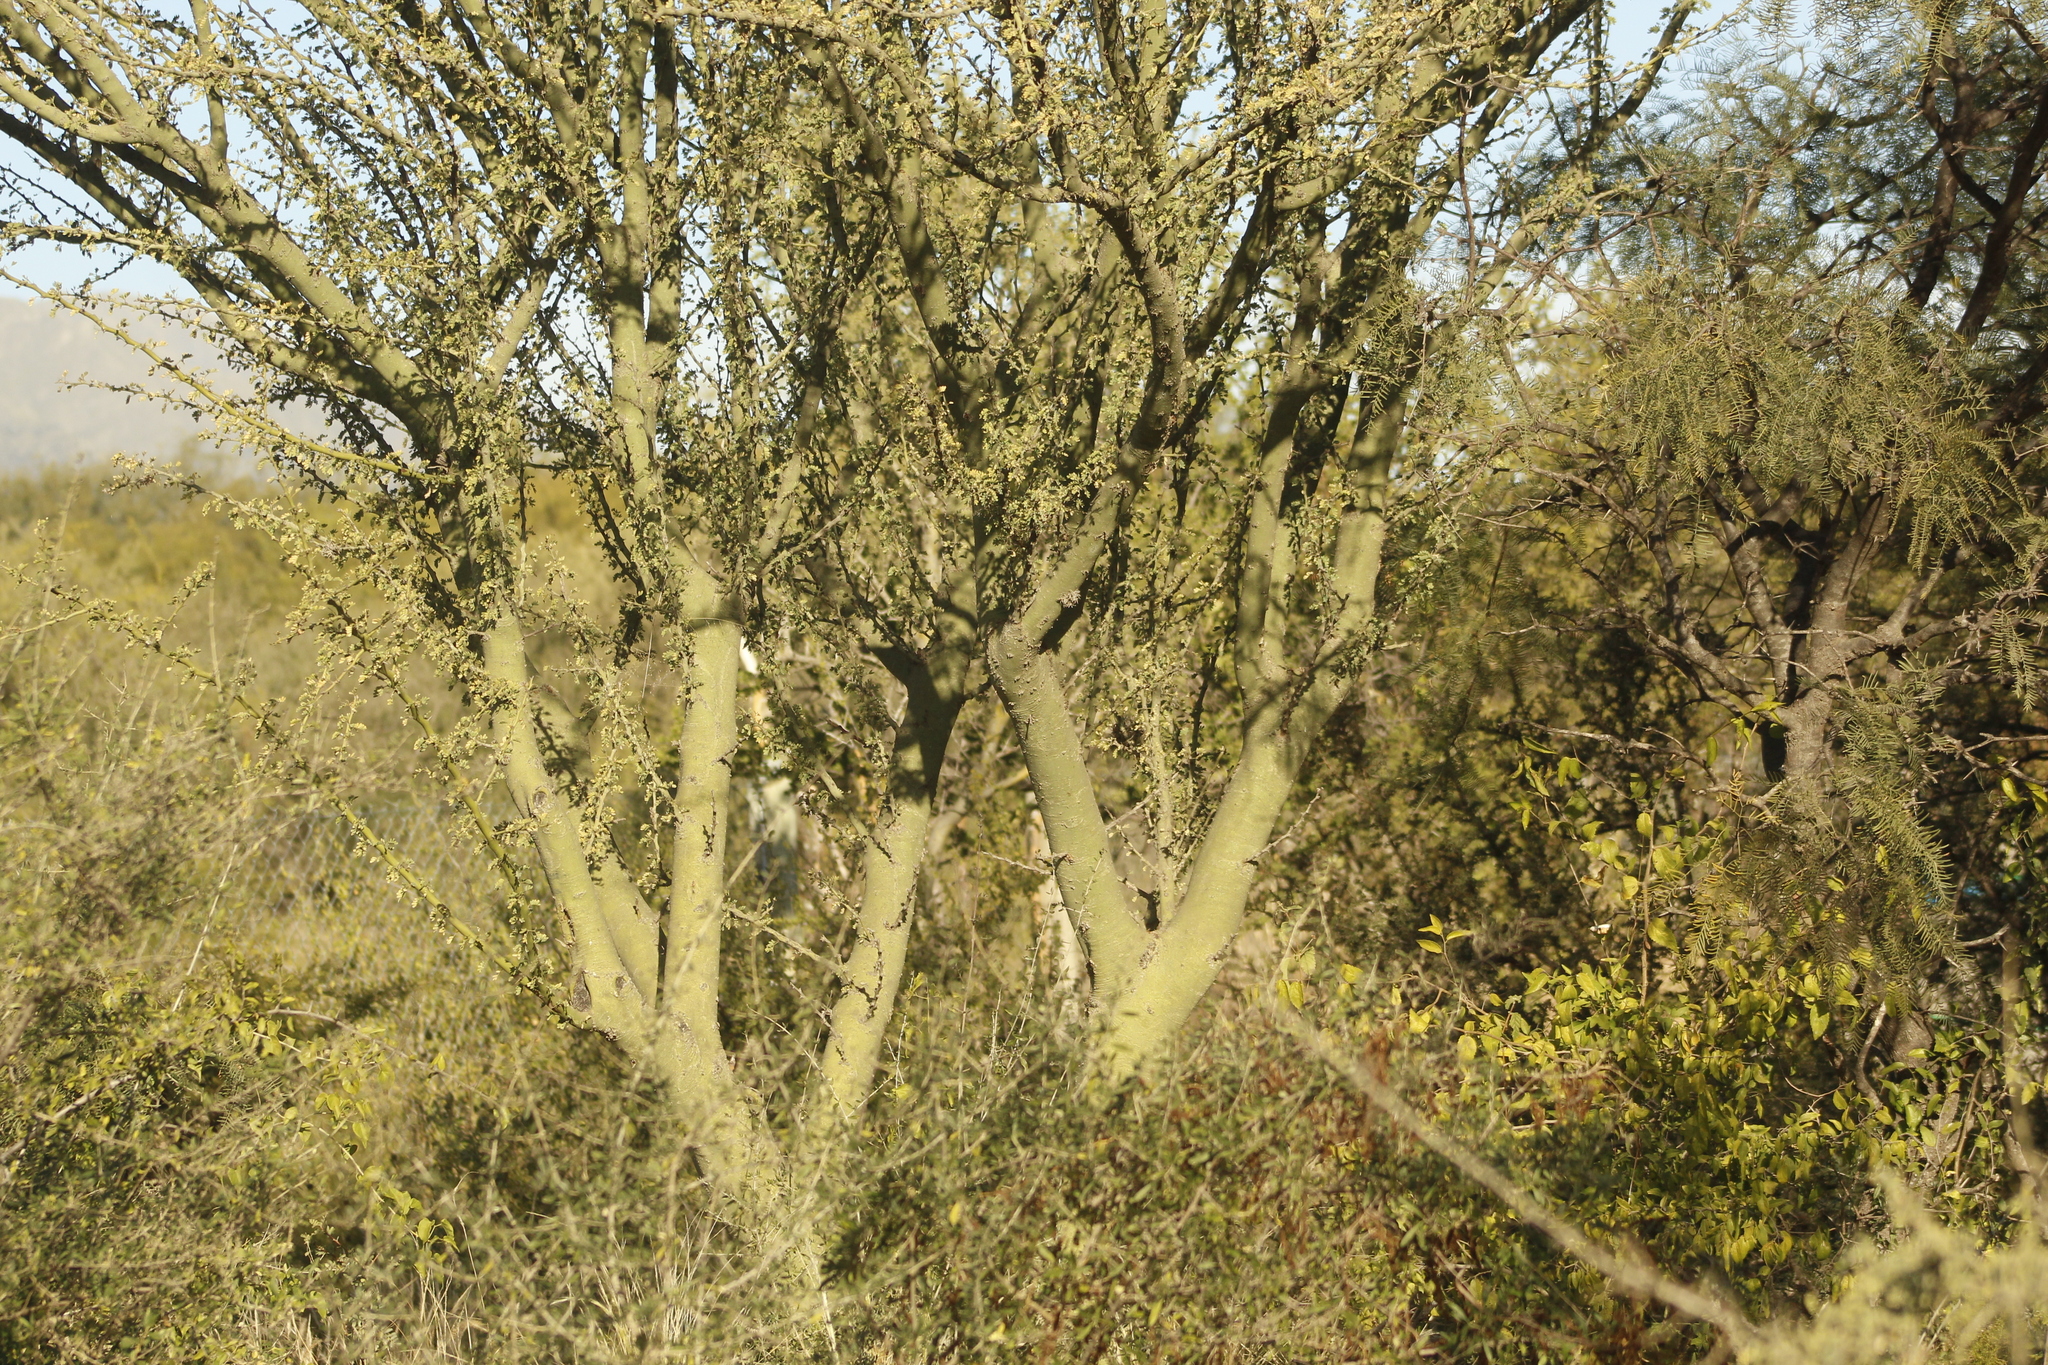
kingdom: Plantae
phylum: Tracheophyta
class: Magnoliopsida
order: Fabales
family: Fabaceae
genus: Parkinsonia
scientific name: Parkinsonia praecox
